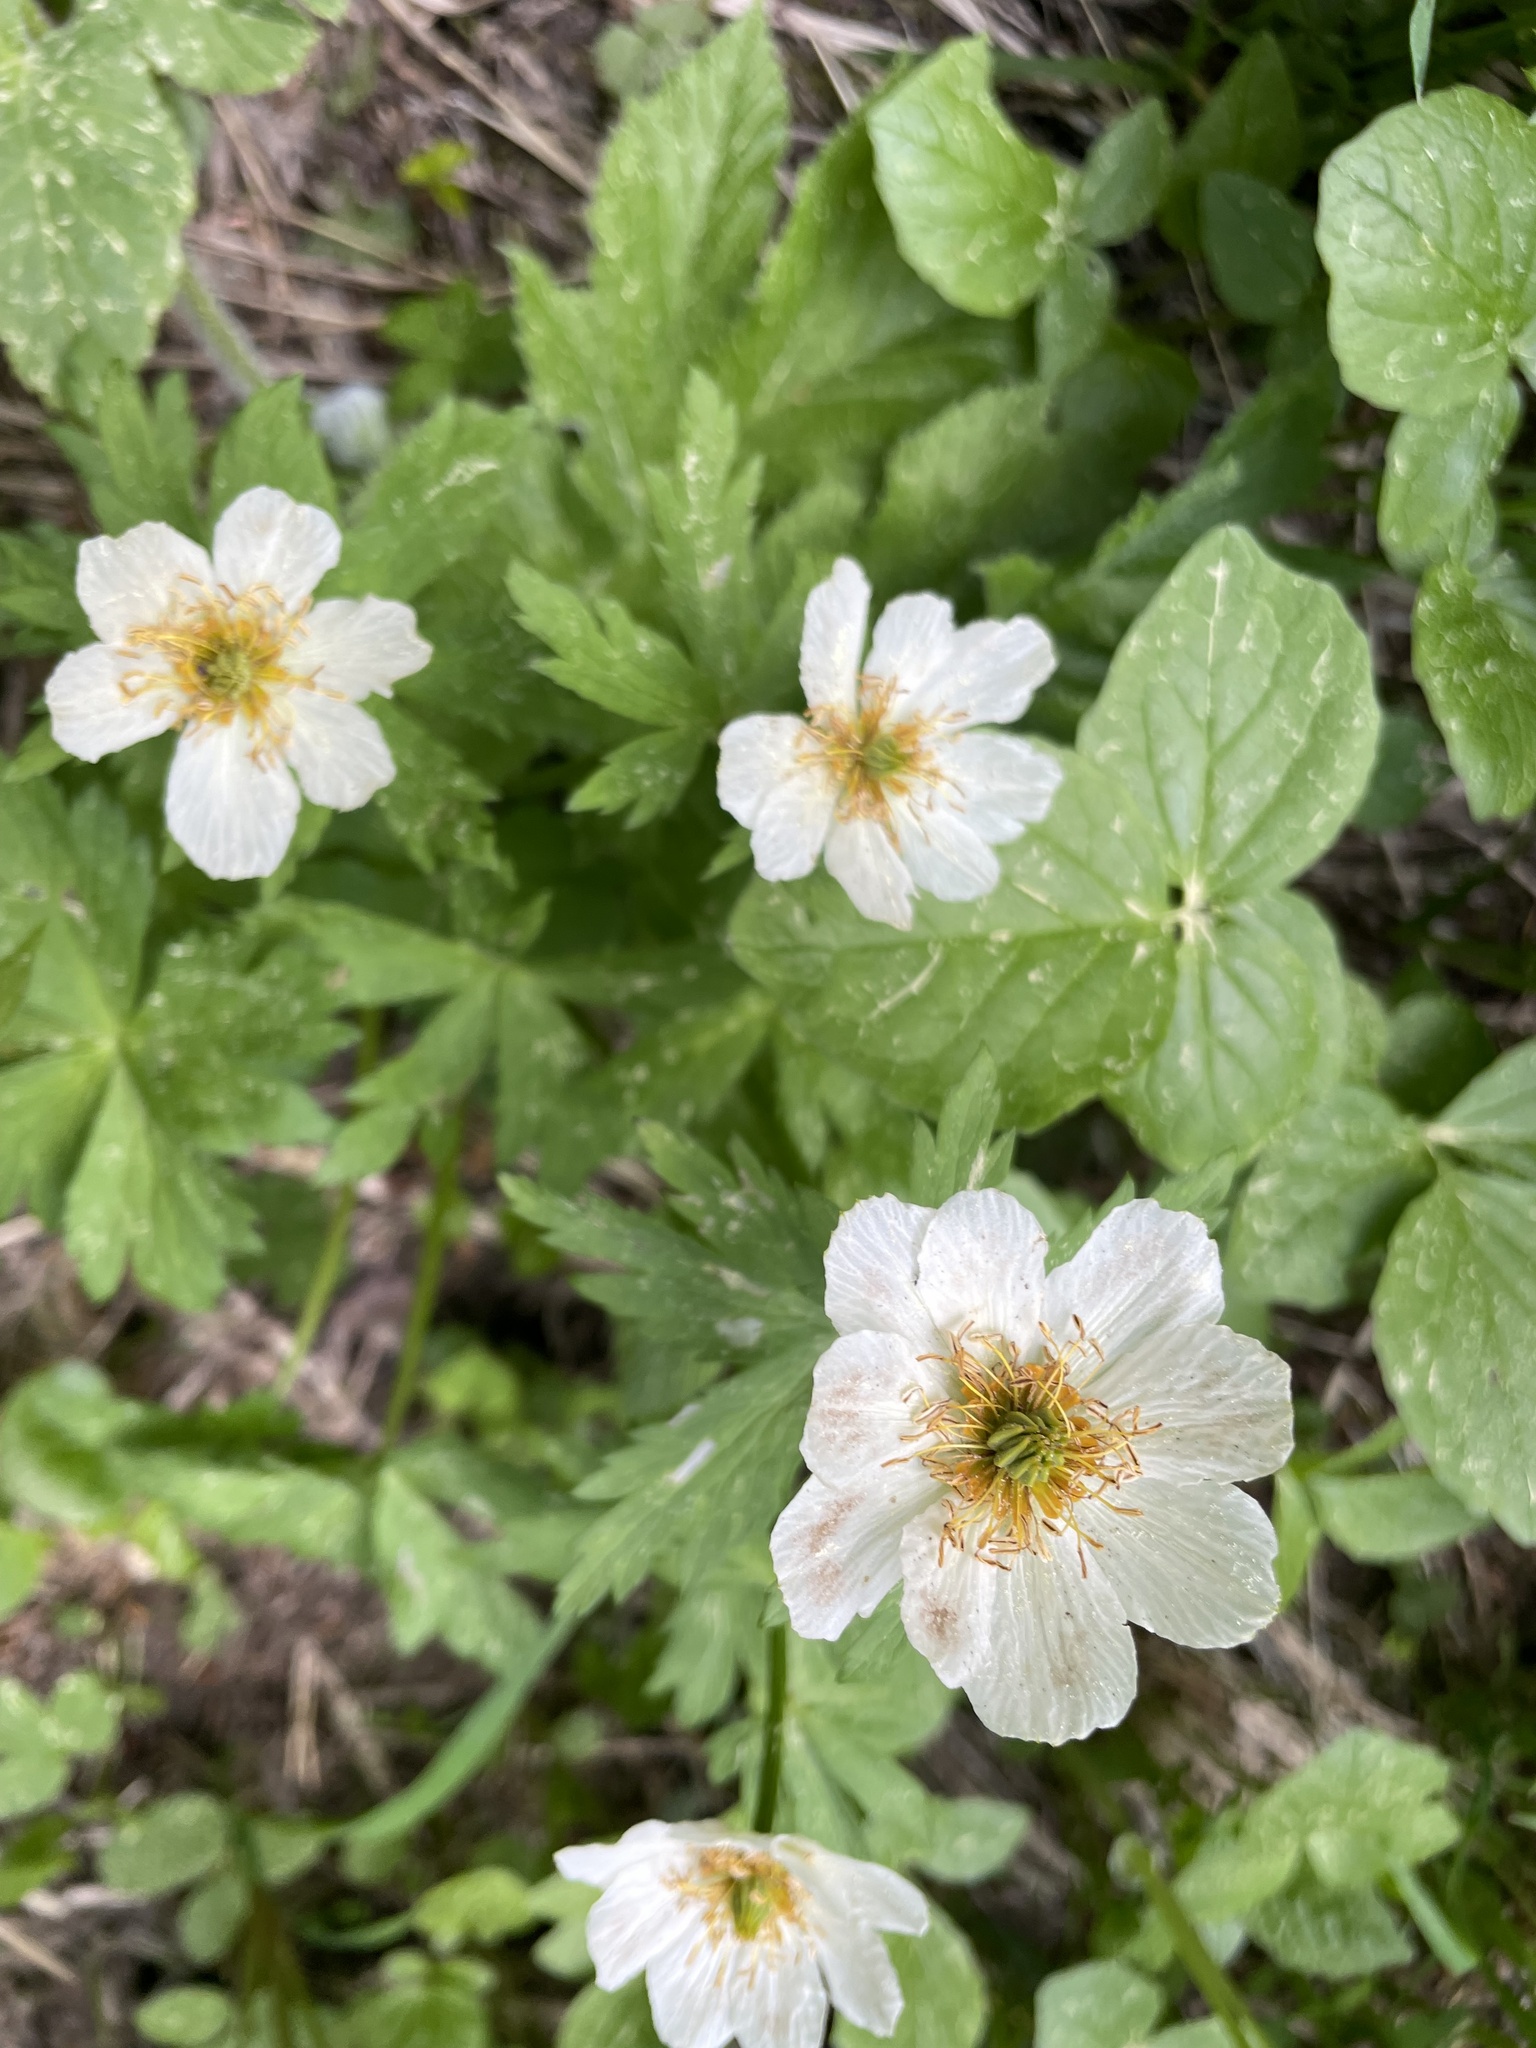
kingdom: Plantae
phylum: Tracheophyta
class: Magnoliopsida
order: Ranunculales
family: Ranunculaceae
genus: Trollius
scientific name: Trollius laxus
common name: American globeflower
